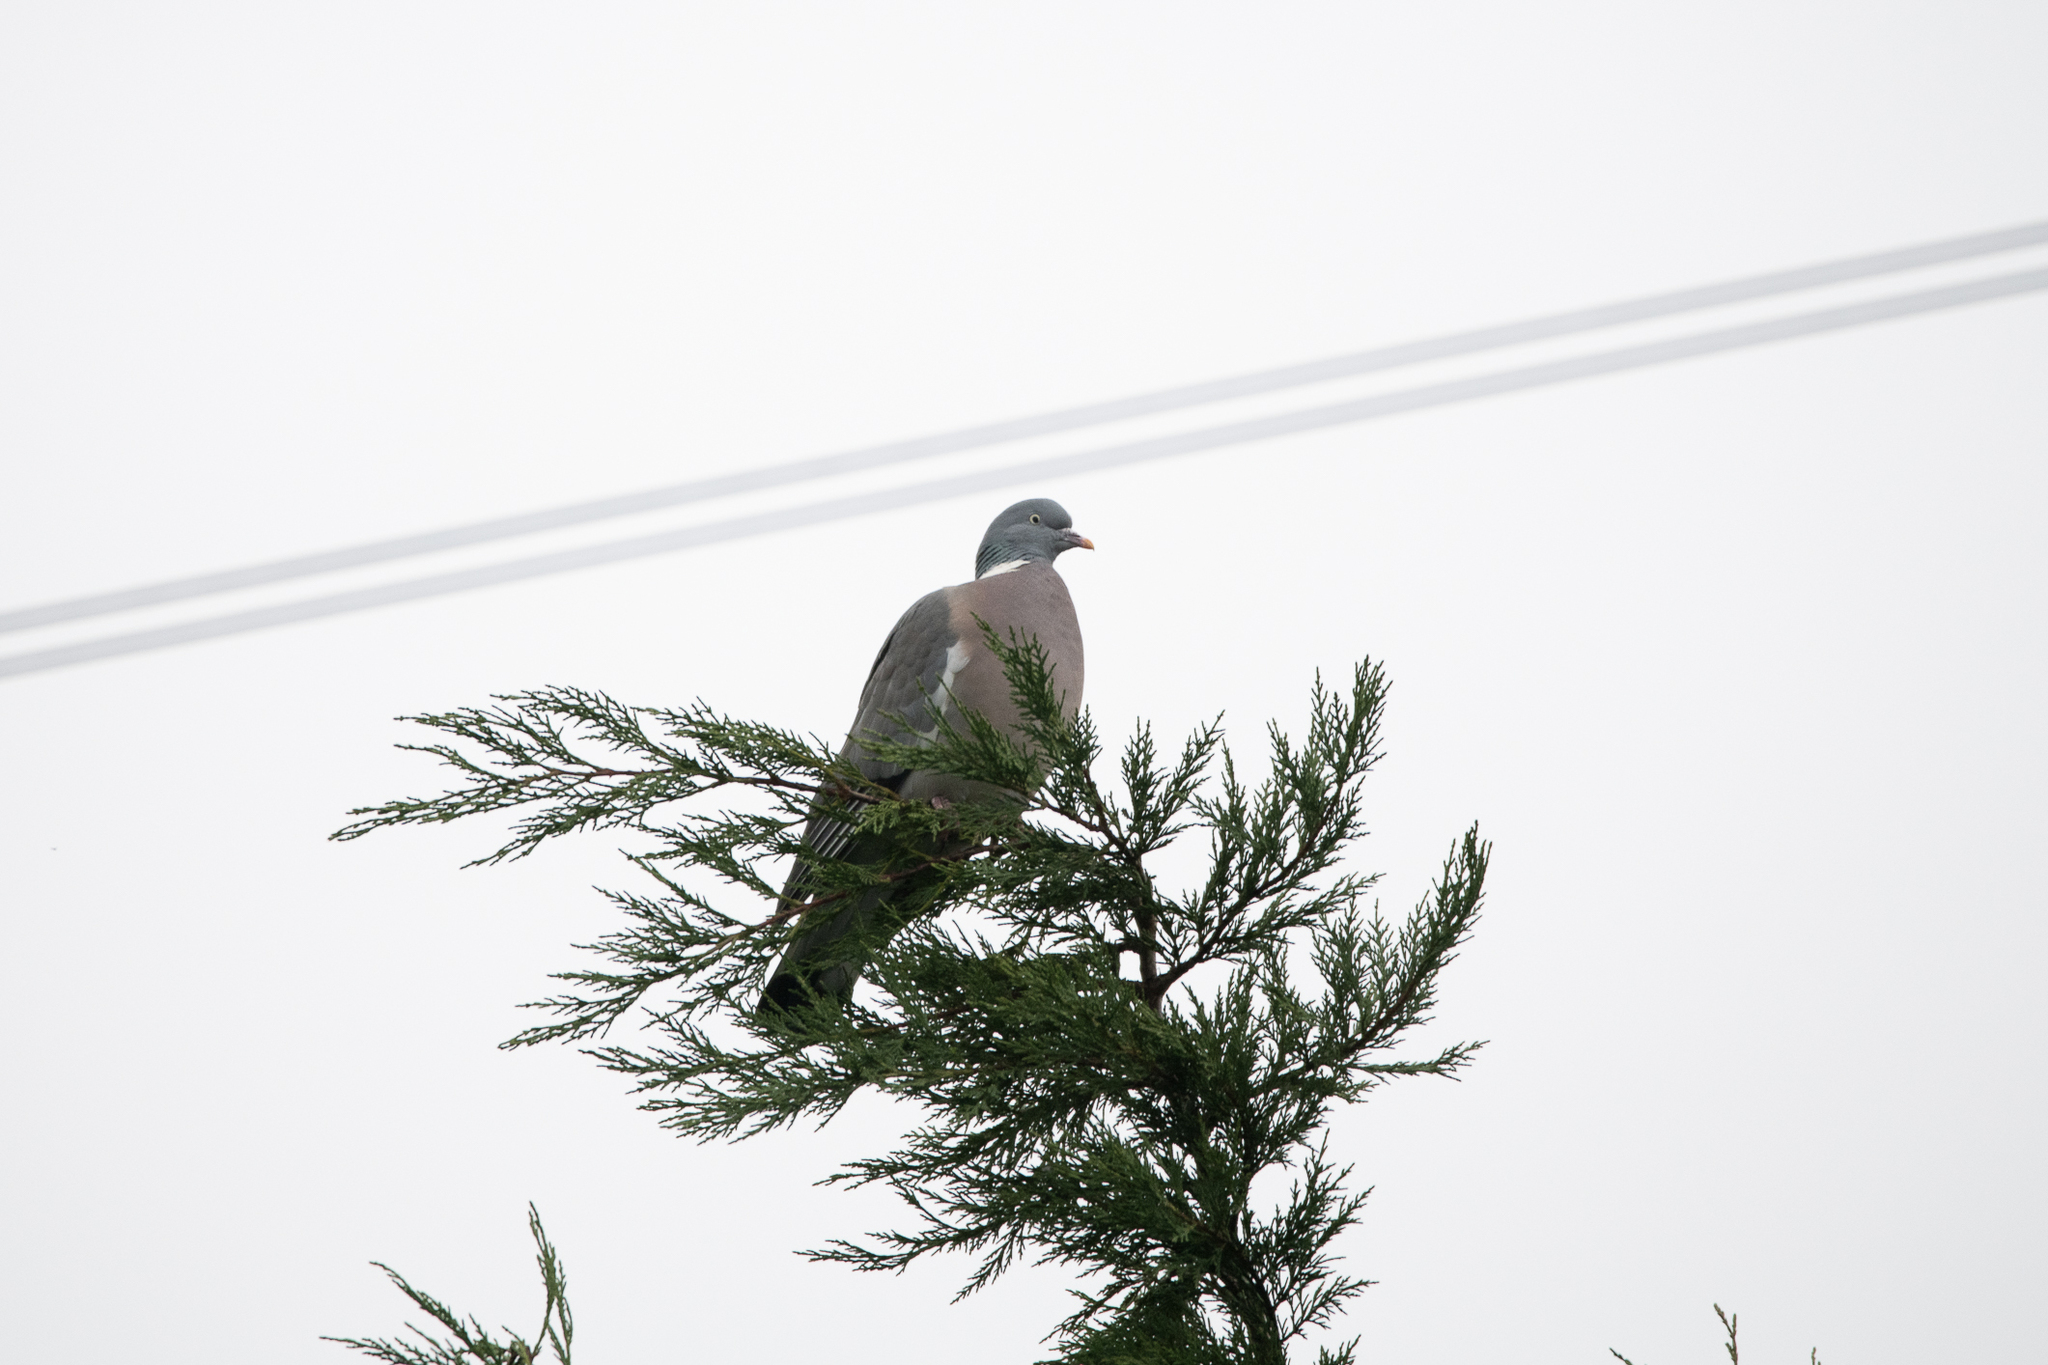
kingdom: Animalia
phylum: Chordata
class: Aves
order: Columbiformes
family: Columbidae
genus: Columba
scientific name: Columba palumbus
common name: Common wood pigeon
